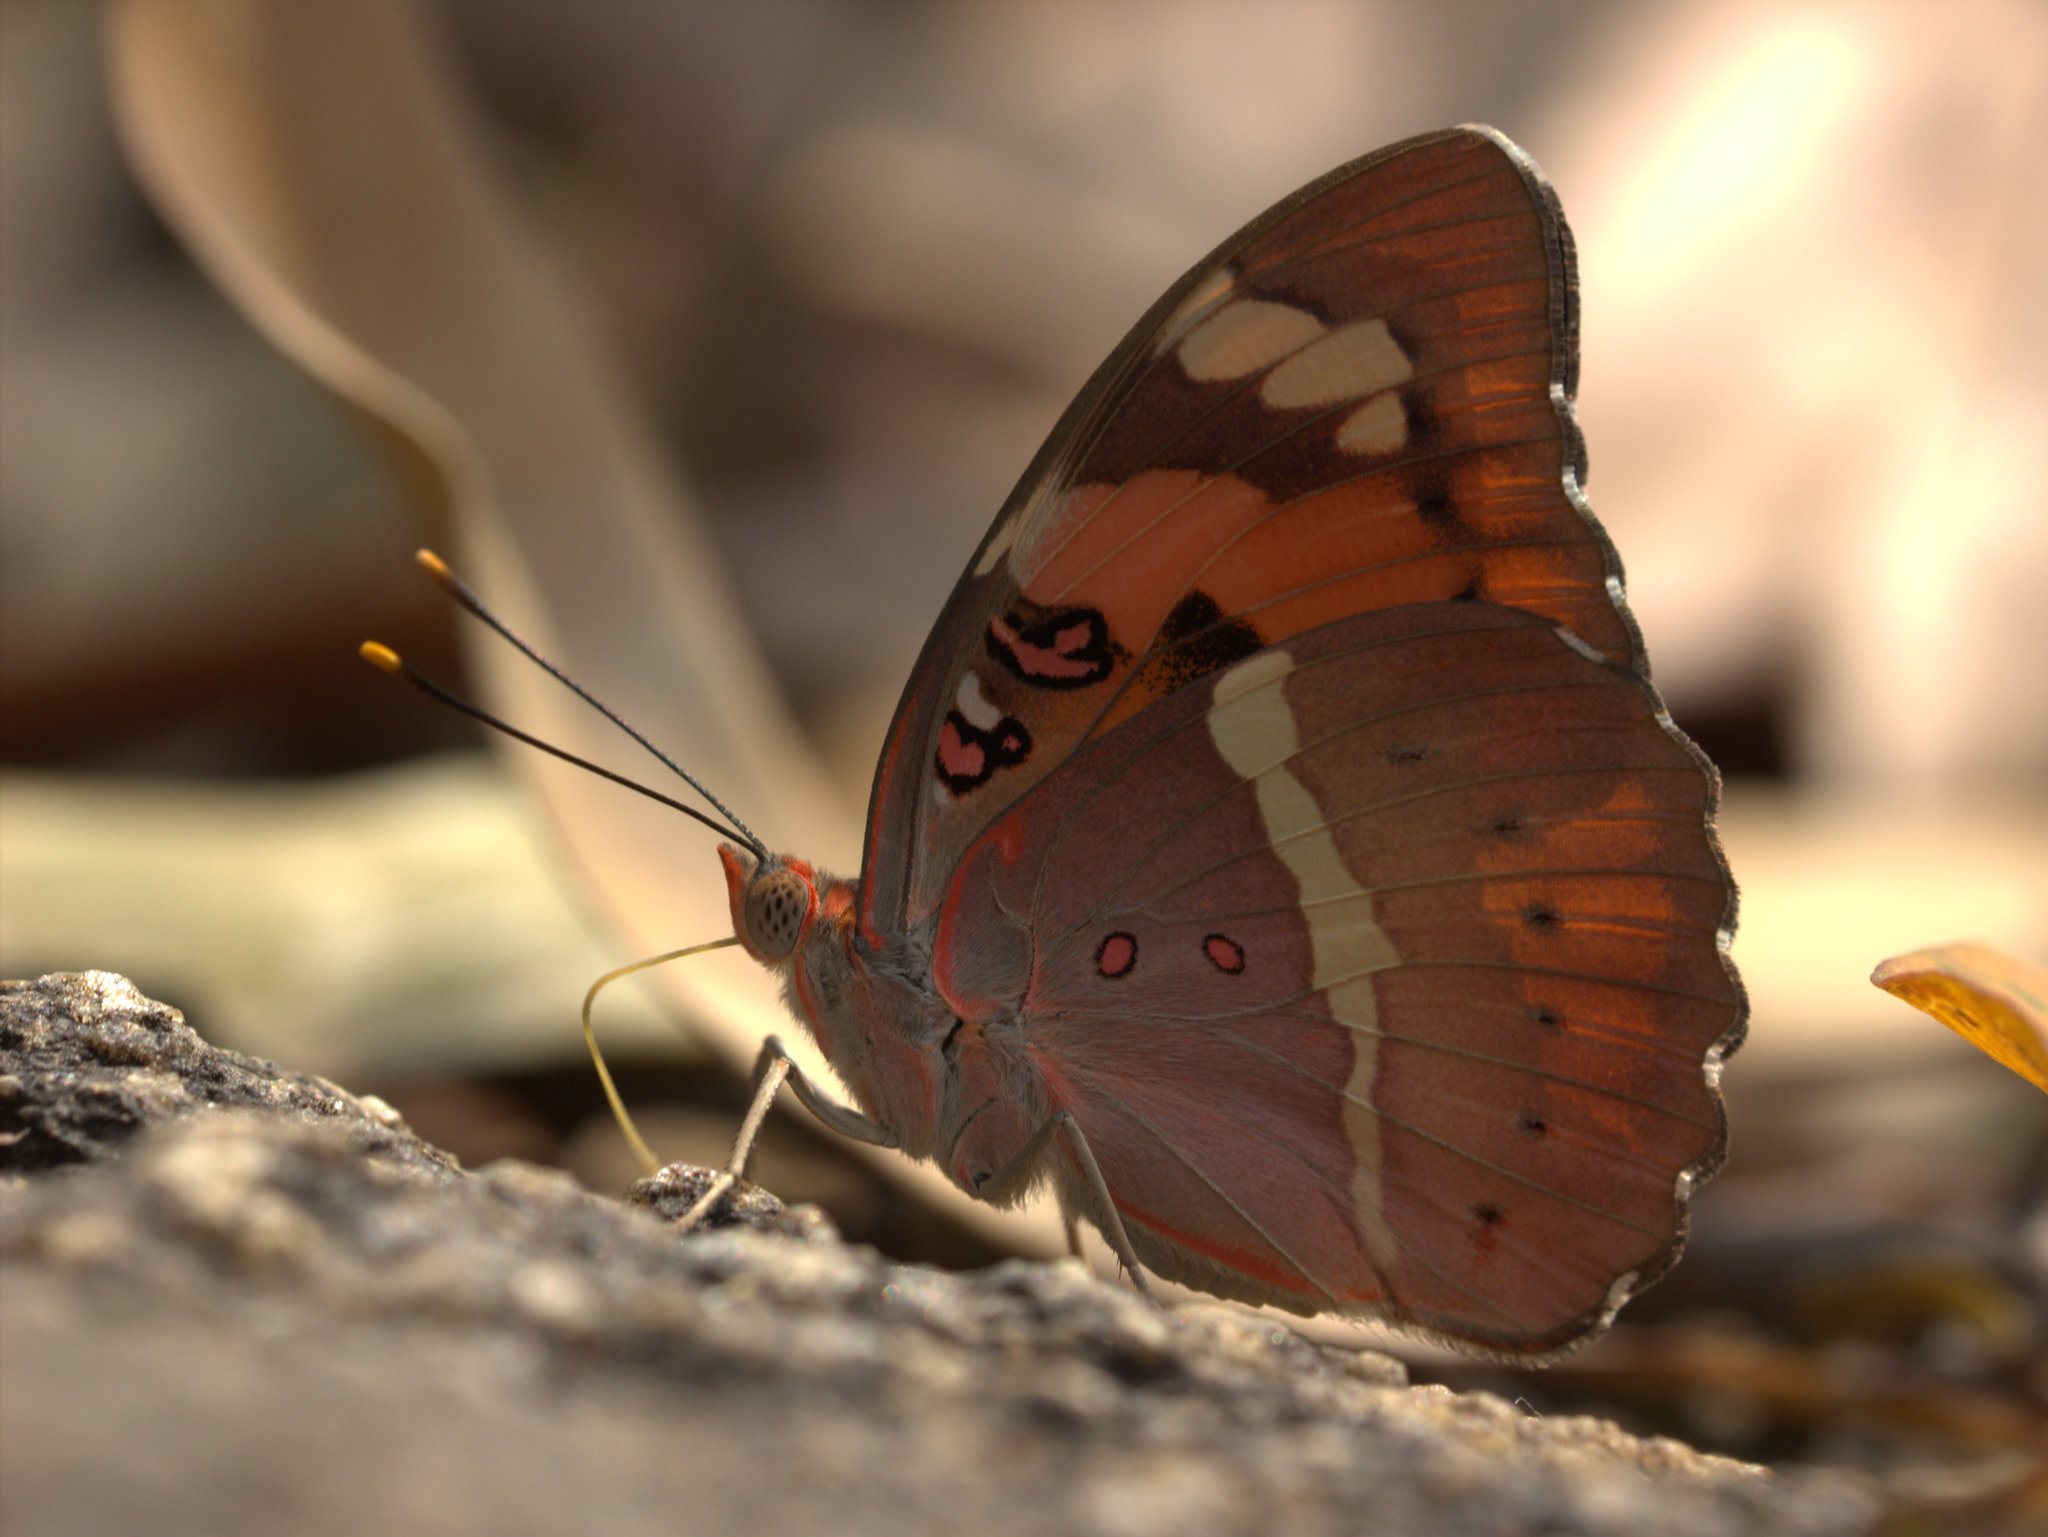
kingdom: Animalia
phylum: Arthropoda
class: Insecta
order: Lepidoptera
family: Nymphalidae
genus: Euthalia
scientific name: Euthalia nais
